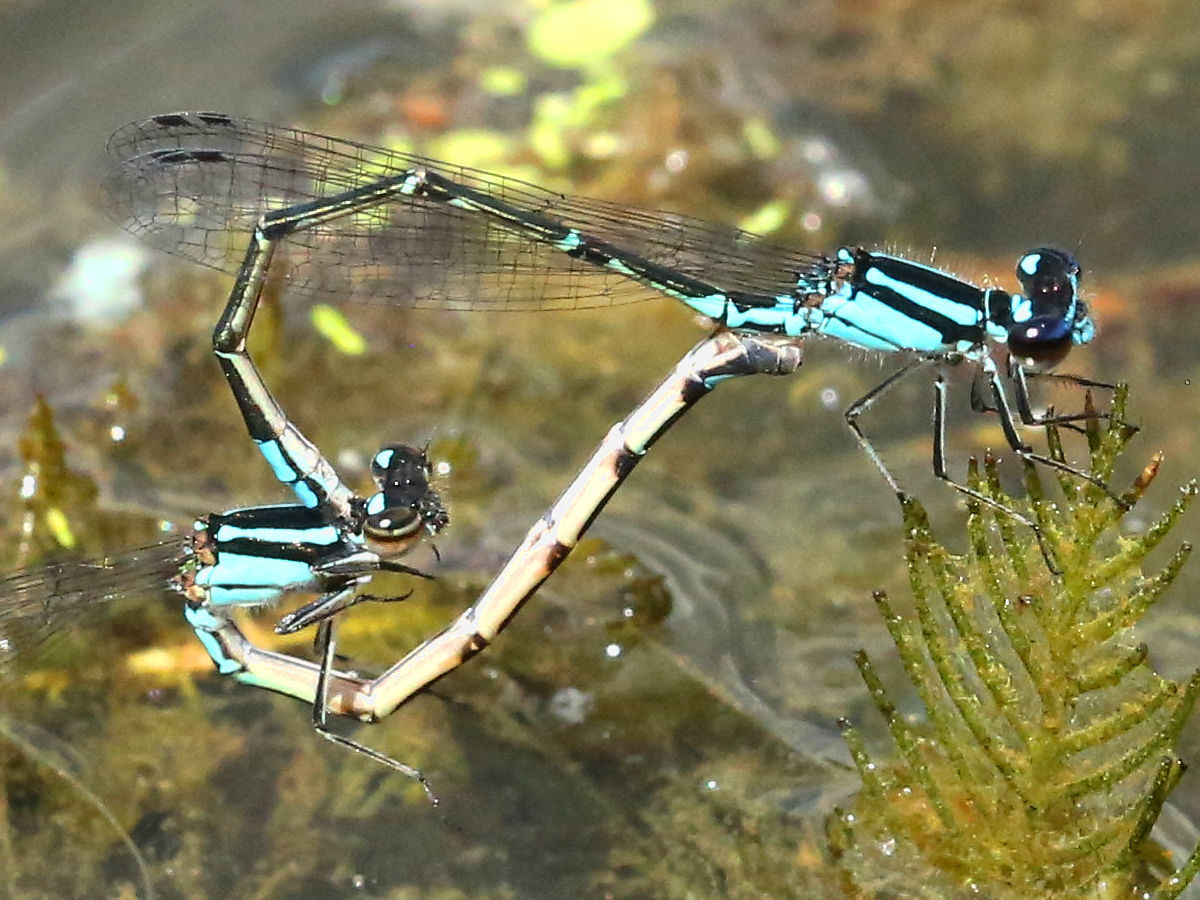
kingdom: Animalia
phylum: Arthropoda
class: Insecta
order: Odonata
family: Coenagrionidae
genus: Enallagma
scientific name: Enallagma geminatum
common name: Skimming bluet
